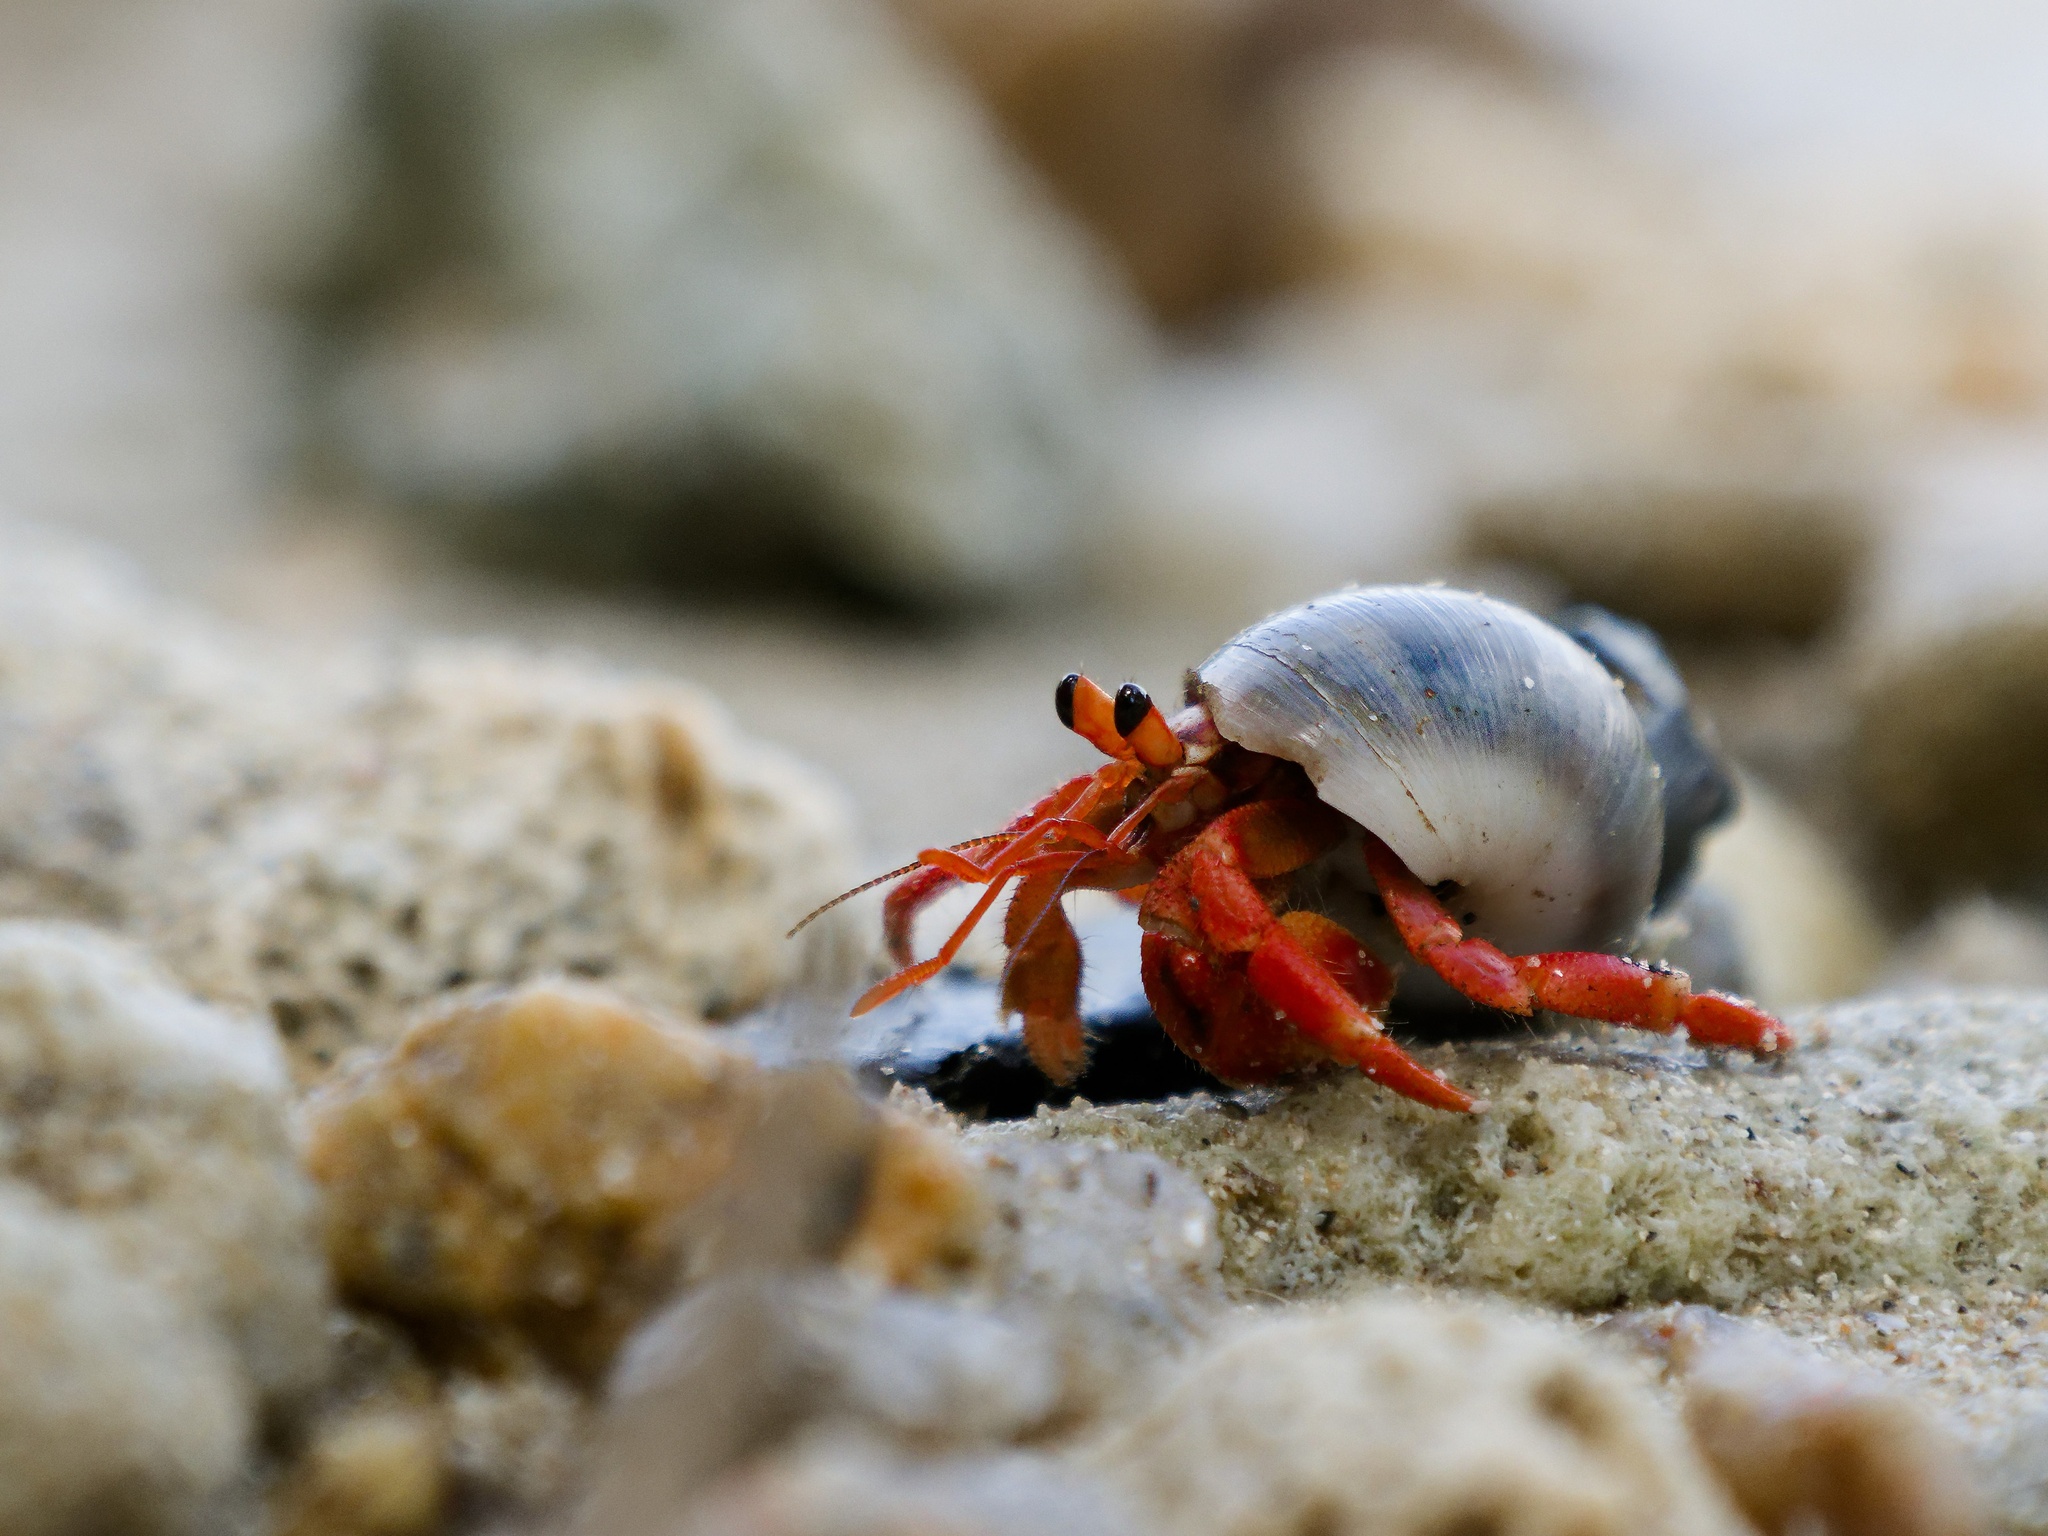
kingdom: Animalia
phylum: Arthropoda
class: Malacostraca
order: Decapoda
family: Coenobitidae
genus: Coenobita
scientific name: Coenobita violascens
